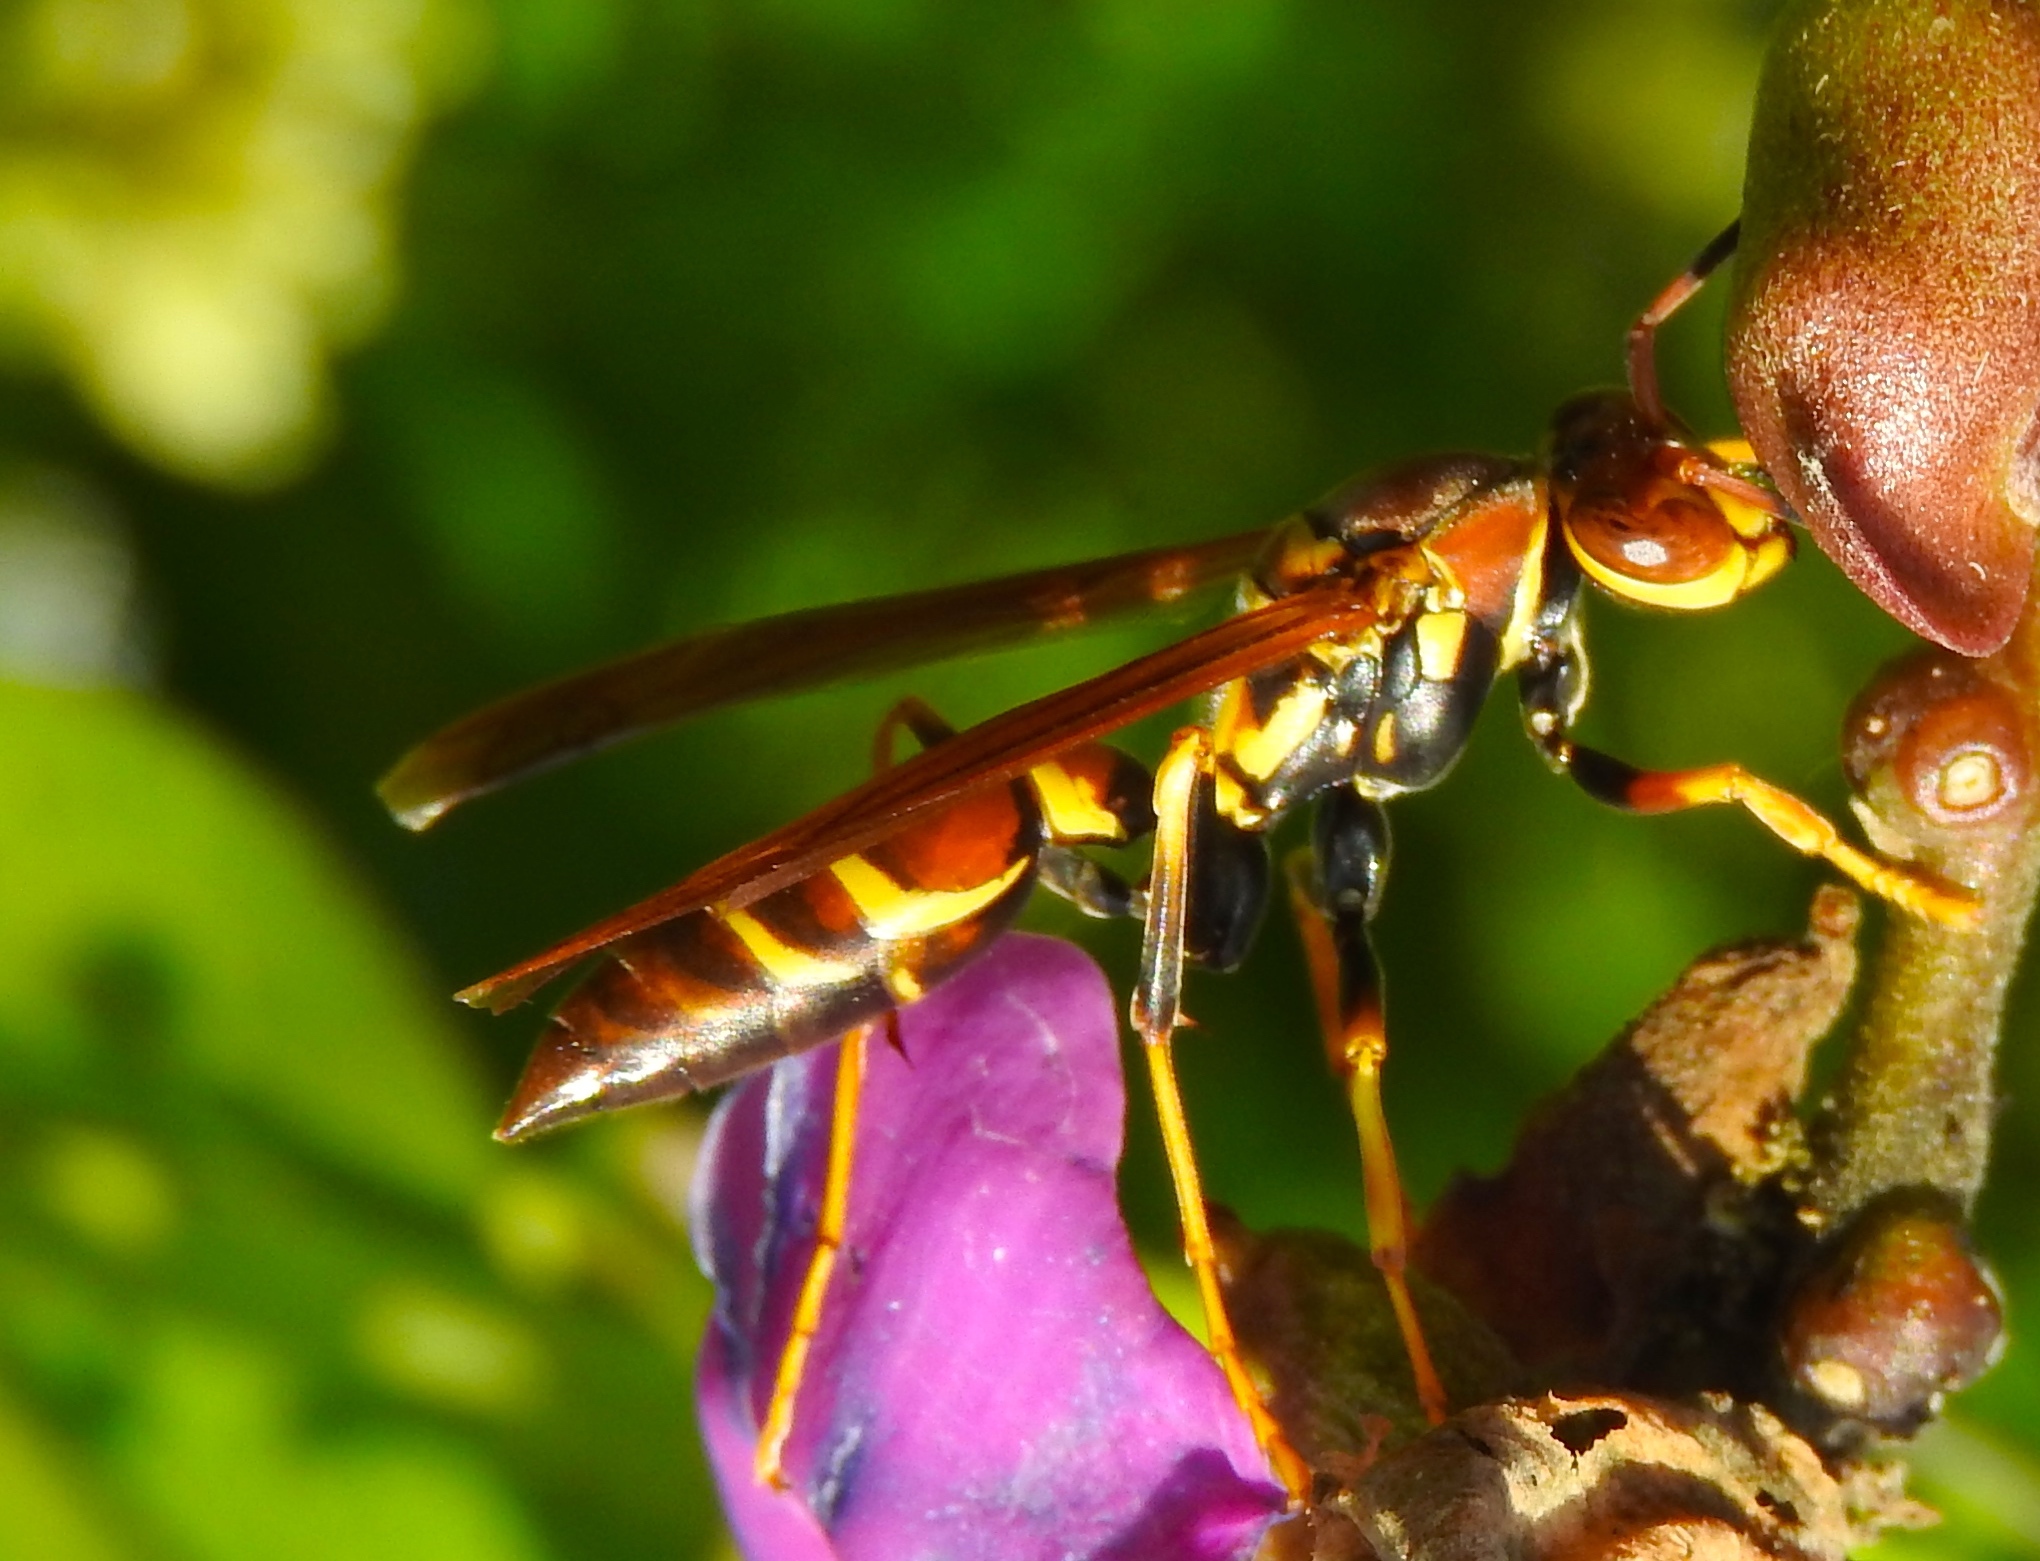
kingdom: Animalia
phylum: Arthropoda
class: Insecta
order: Hymenoptera
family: Eumenidae
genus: Polistes
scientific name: Polistes instabilis
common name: Unstable paper wasp
